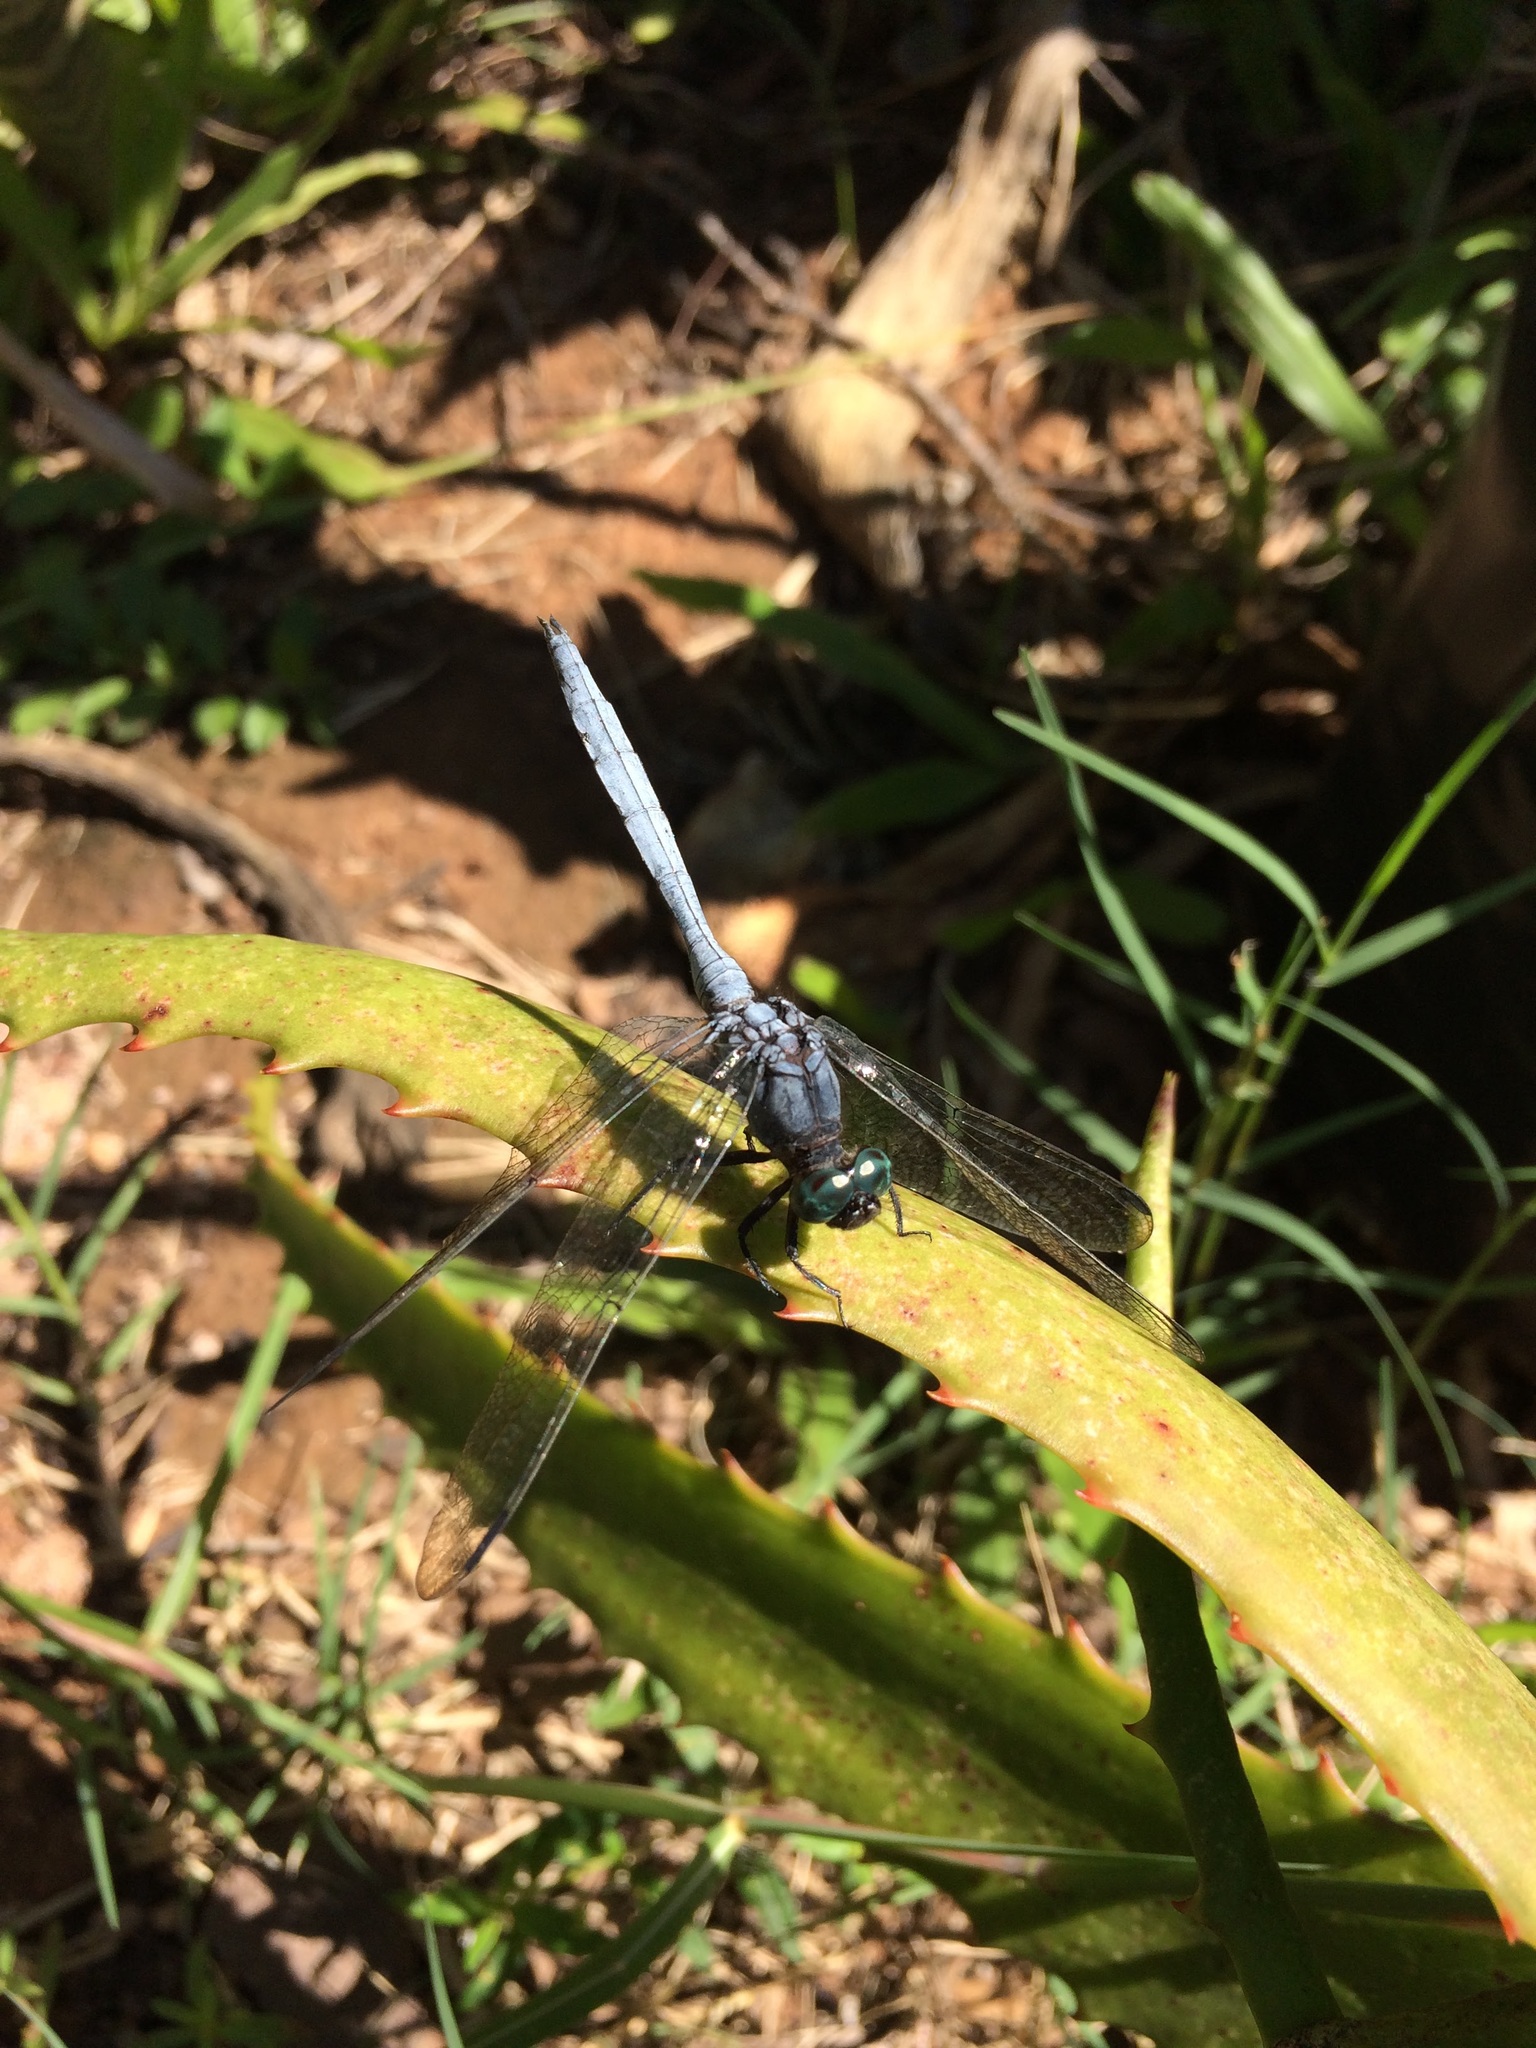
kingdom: Animalia
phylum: Arthropoda
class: Insecta
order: Odonata
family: Libellulidae
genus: Orthetrum
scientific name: Orthetrum julia
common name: Julia skimmer
